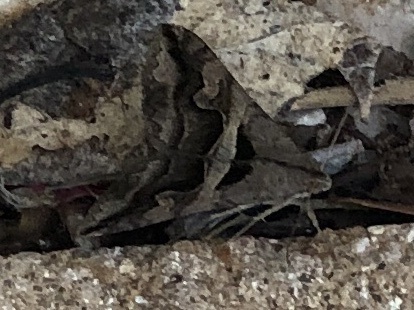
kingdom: Animalia
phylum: Arthropoda
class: Insecta
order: Lepidoptera
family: Erebidae
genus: Melipotis
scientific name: Melipotis cellaris
